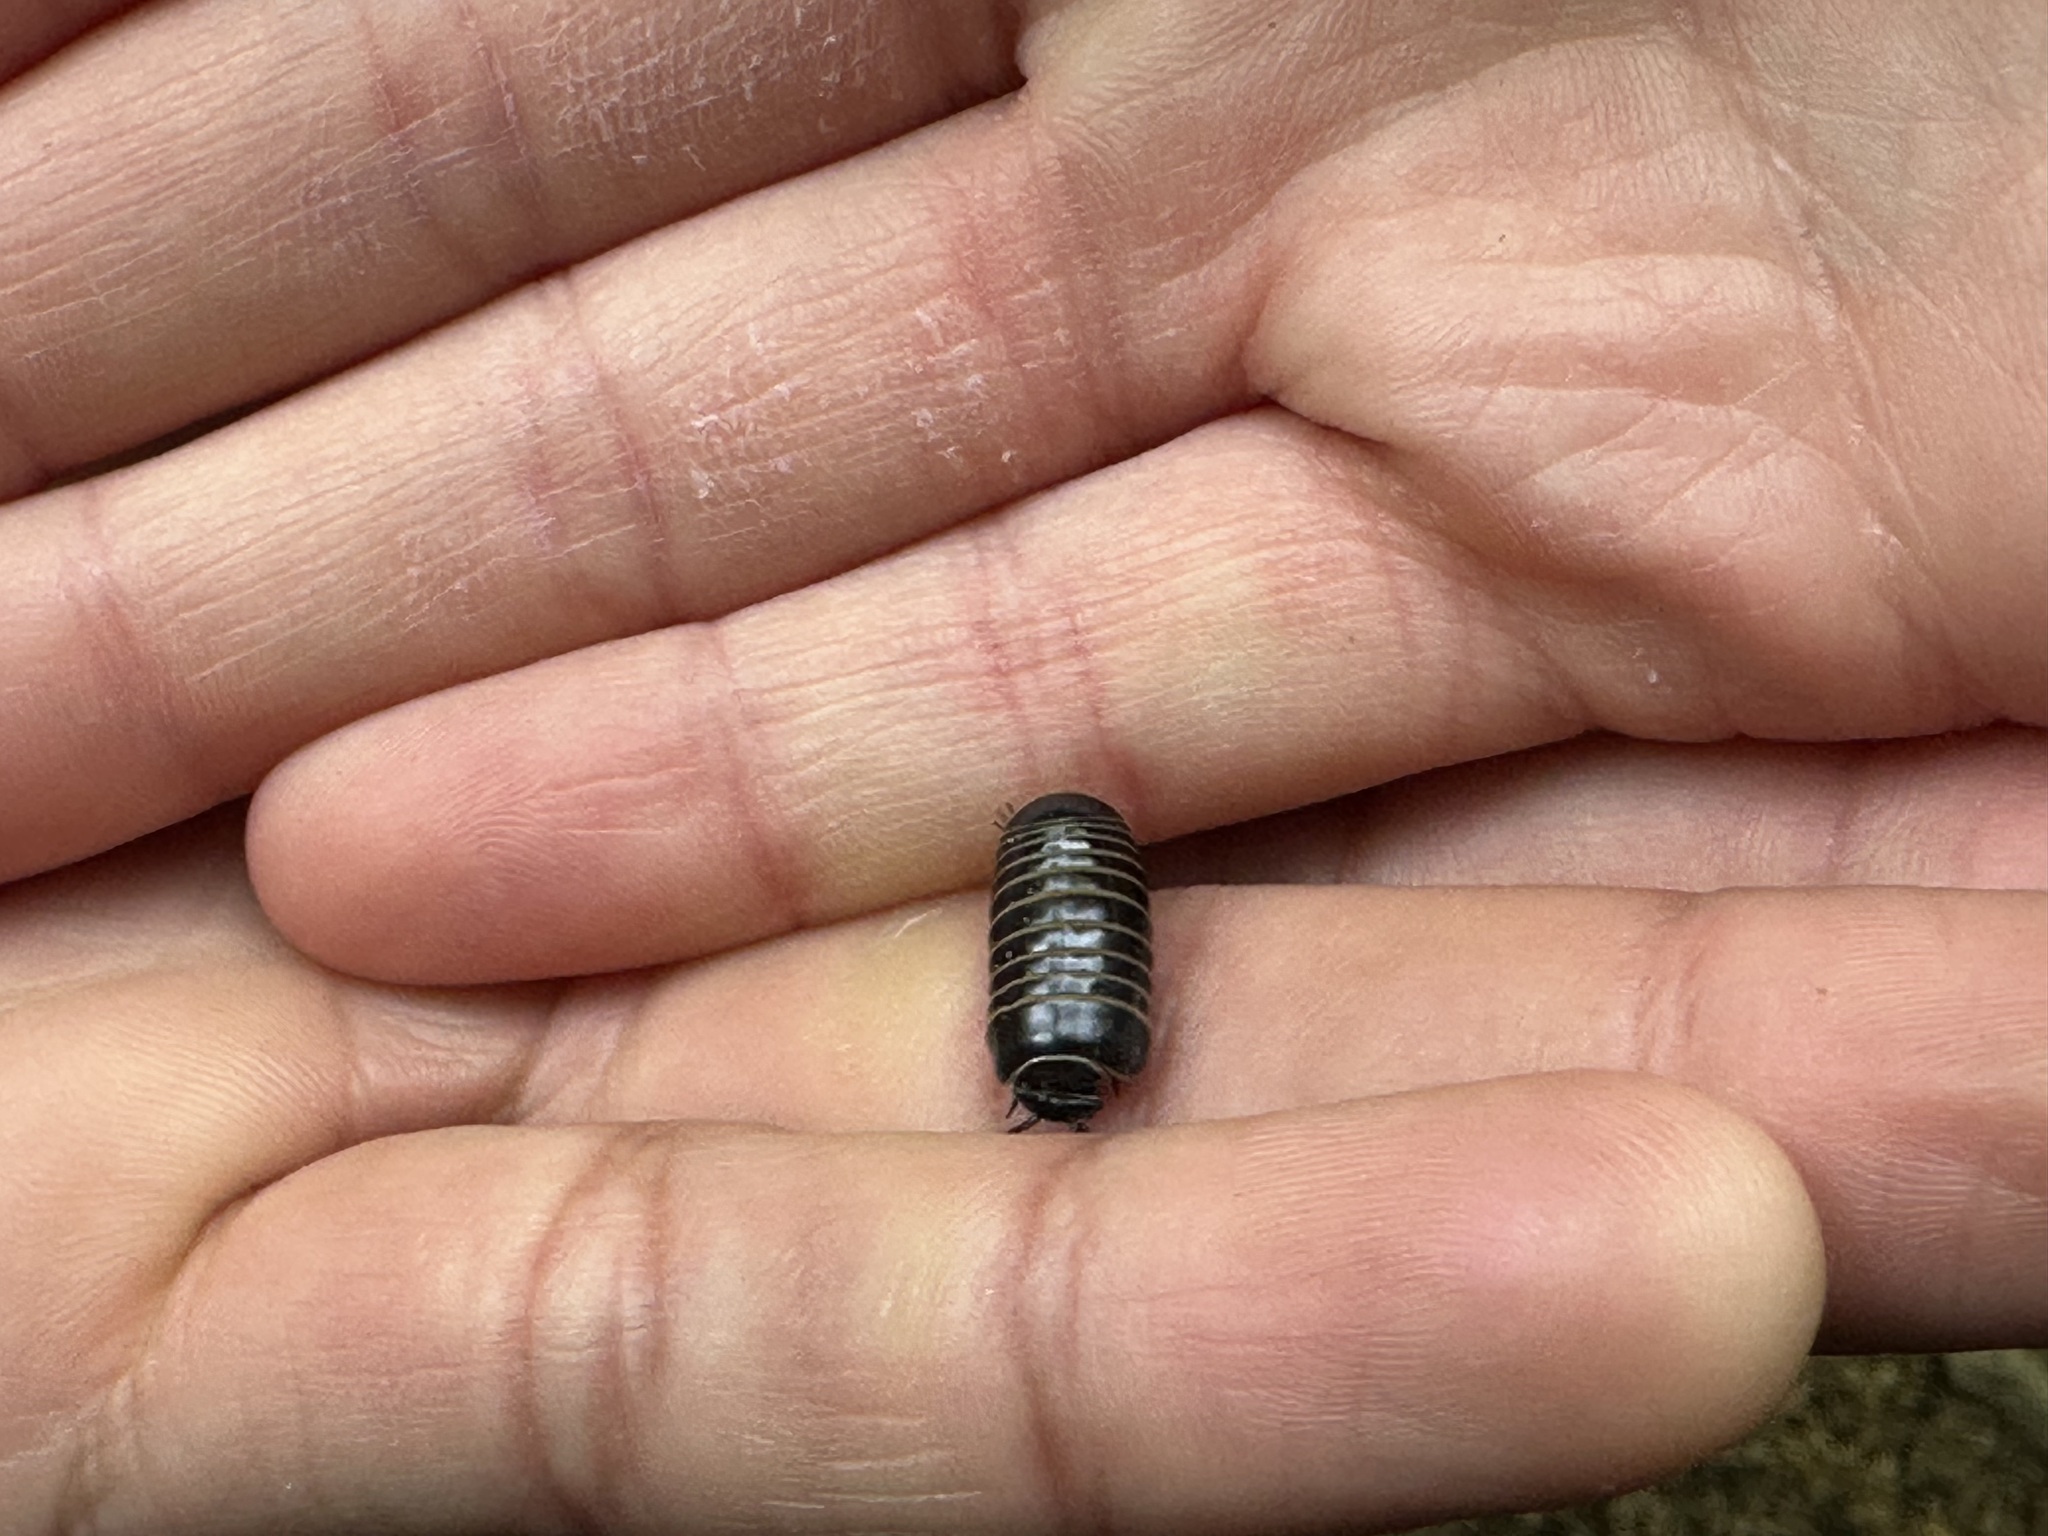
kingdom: Animalia
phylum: Arthropoda
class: Diplopoda
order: Glomerida
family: Glomeridae
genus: Glomeris
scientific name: Glomeris marginata
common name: Bordered pill millipede
